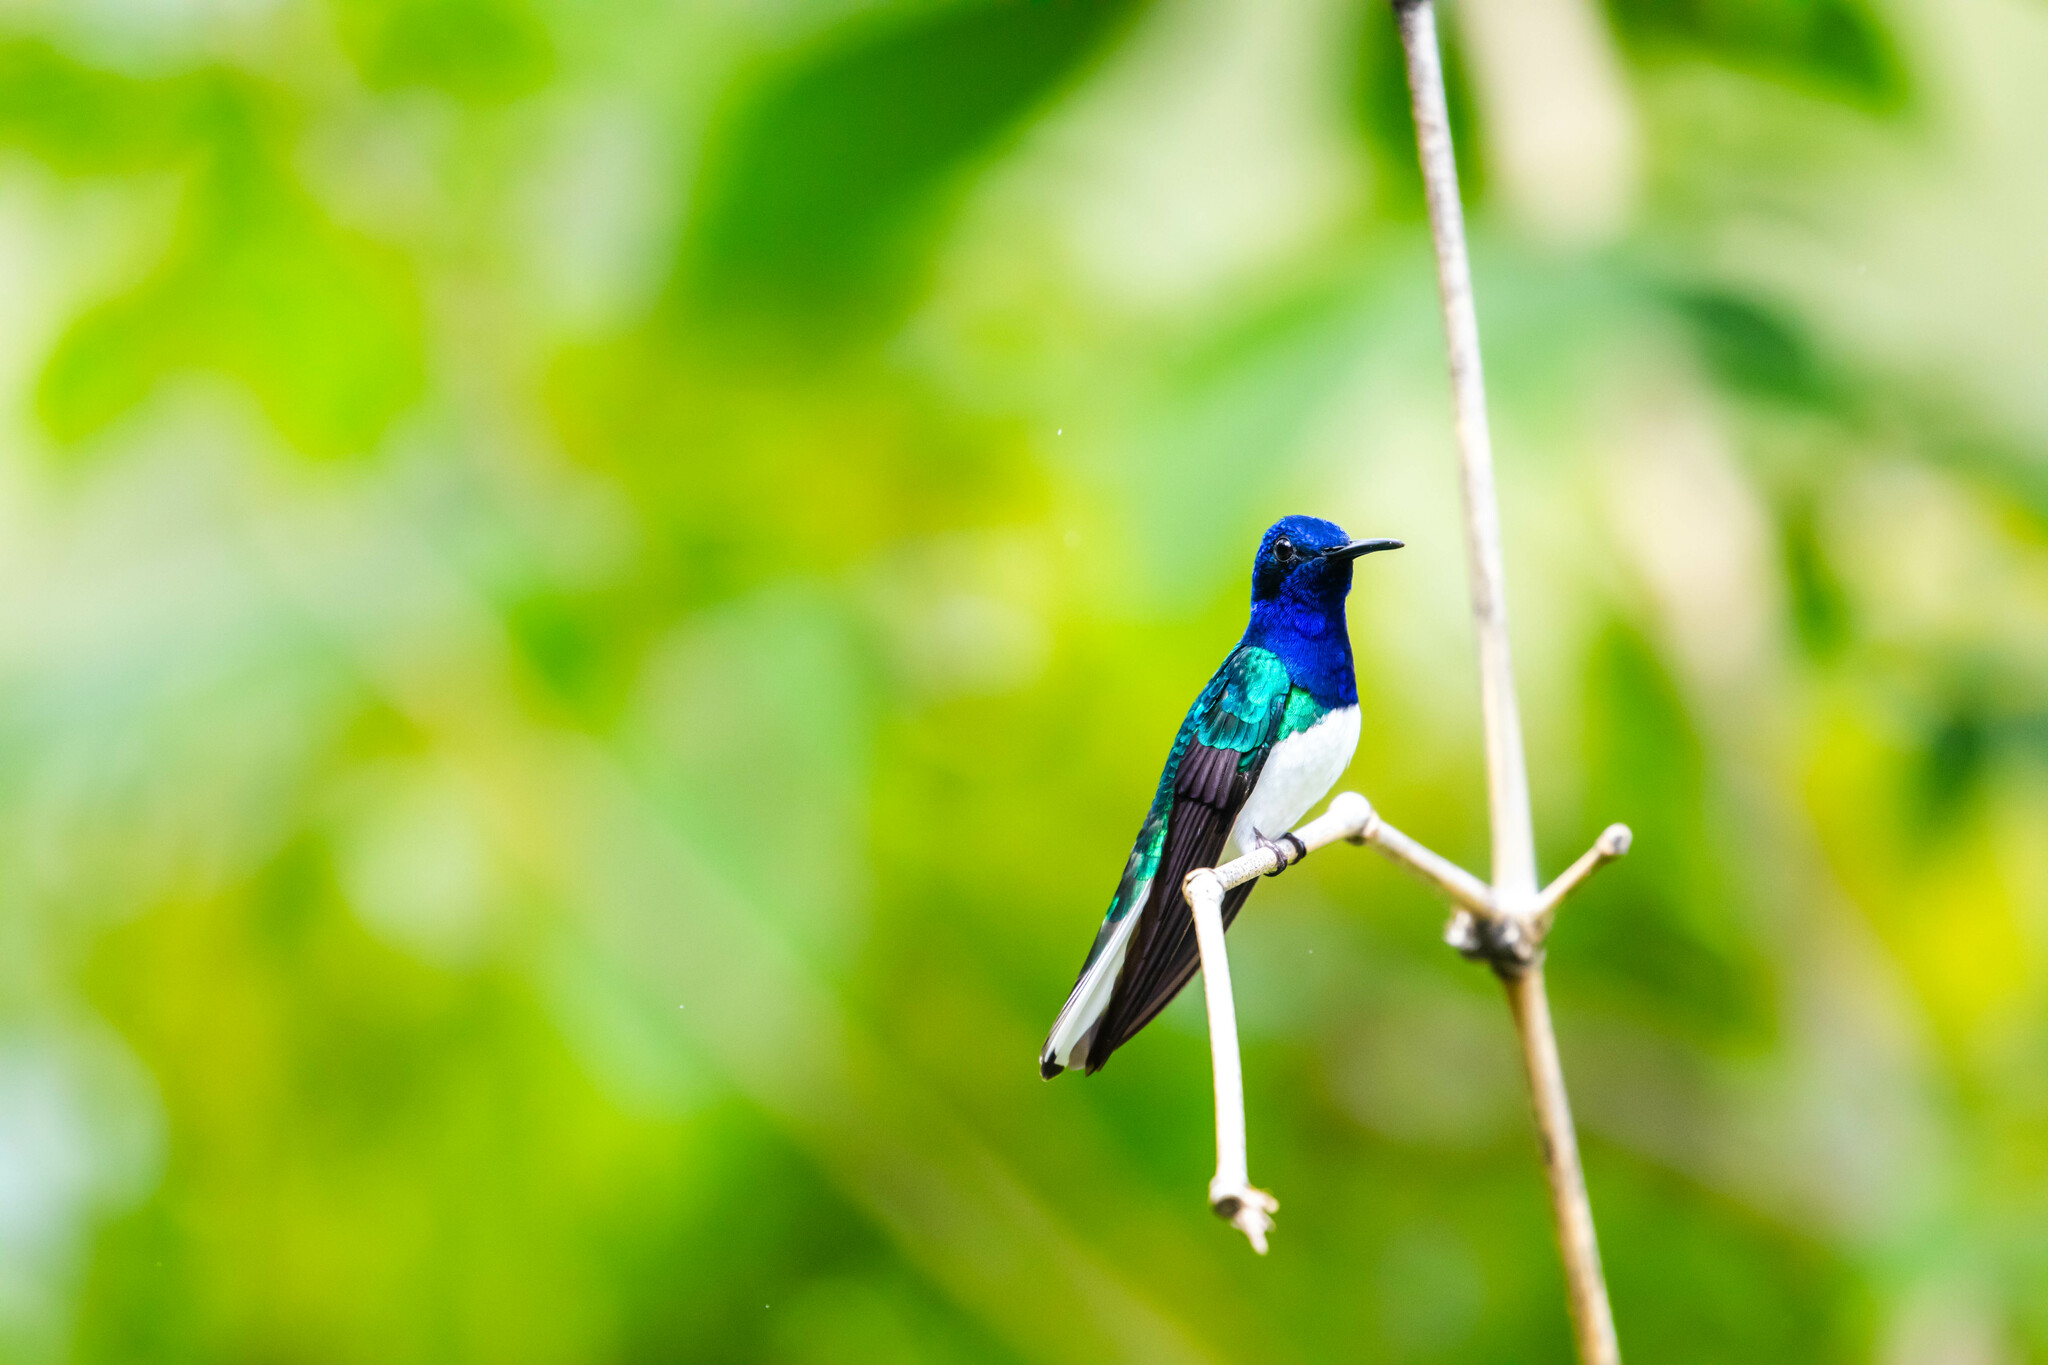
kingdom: Animalia
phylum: Chordata
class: Aves
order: Apodiformes
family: Trochilidae
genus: Florisuga
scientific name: Florisuga mellivora
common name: White-necked jacobin
